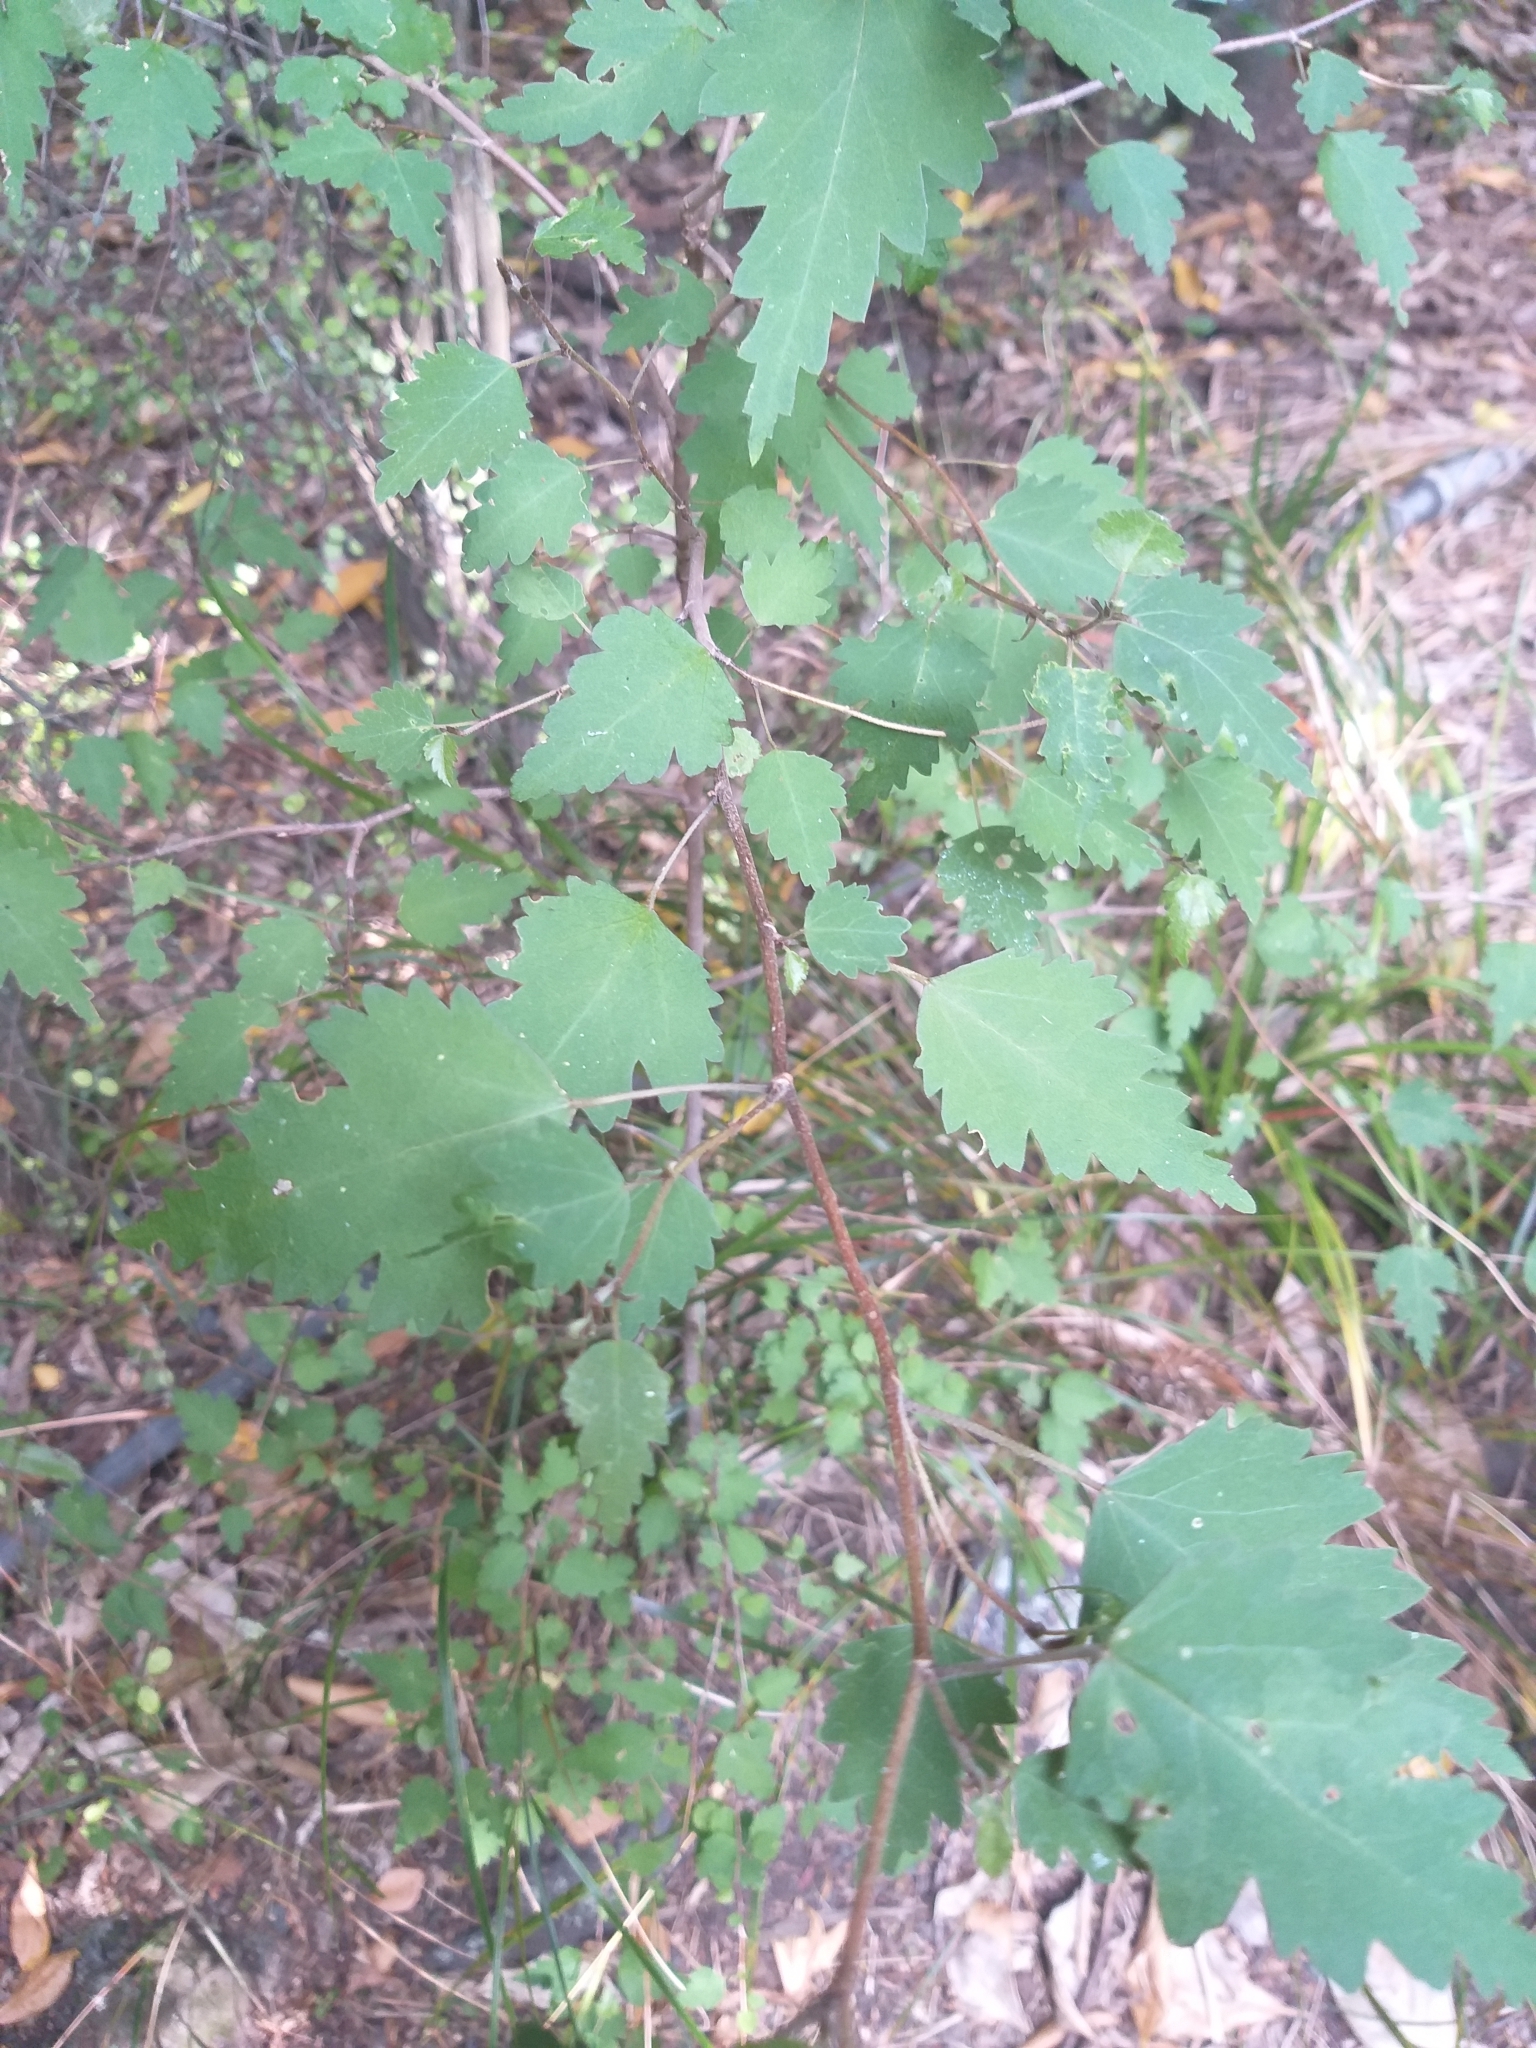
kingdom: Plantae
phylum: Tracheophyta
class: Magnoliopsida
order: Malvales
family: Malvaceae
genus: Plagianthus
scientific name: Plagianthus regius
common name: Manatu
